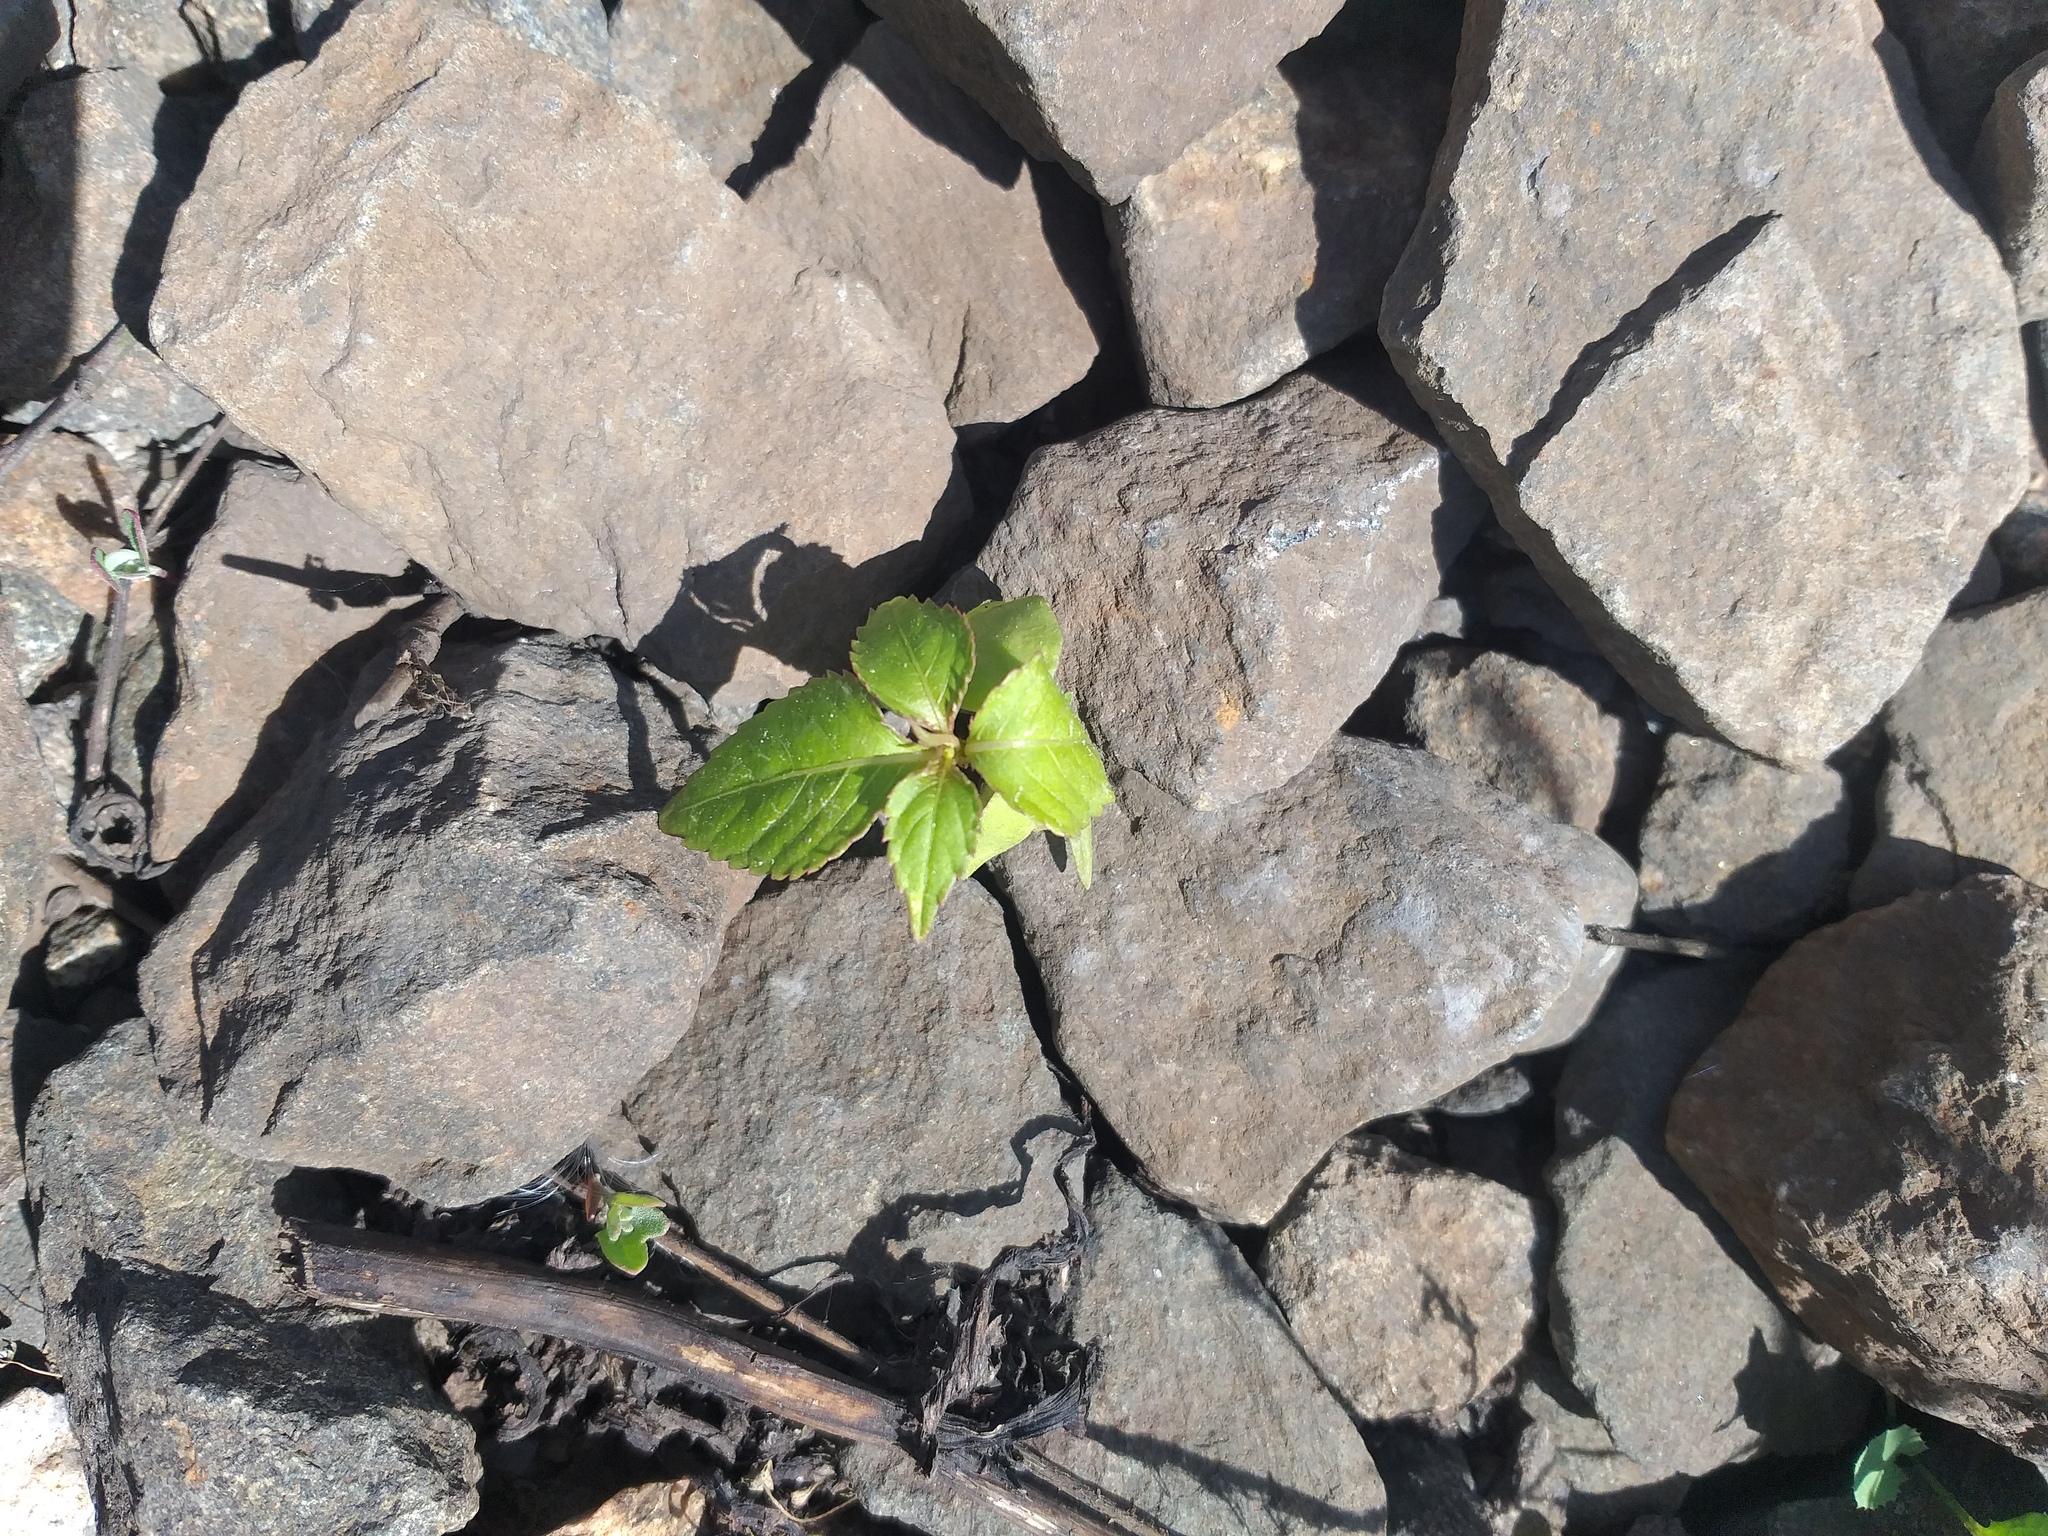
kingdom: Plantae
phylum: Tracheophyta
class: Magnoliopsida
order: Ericales
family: Balsaminaceae
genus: Impatiens
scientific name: Impatiens parviflora
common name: Small balsam
